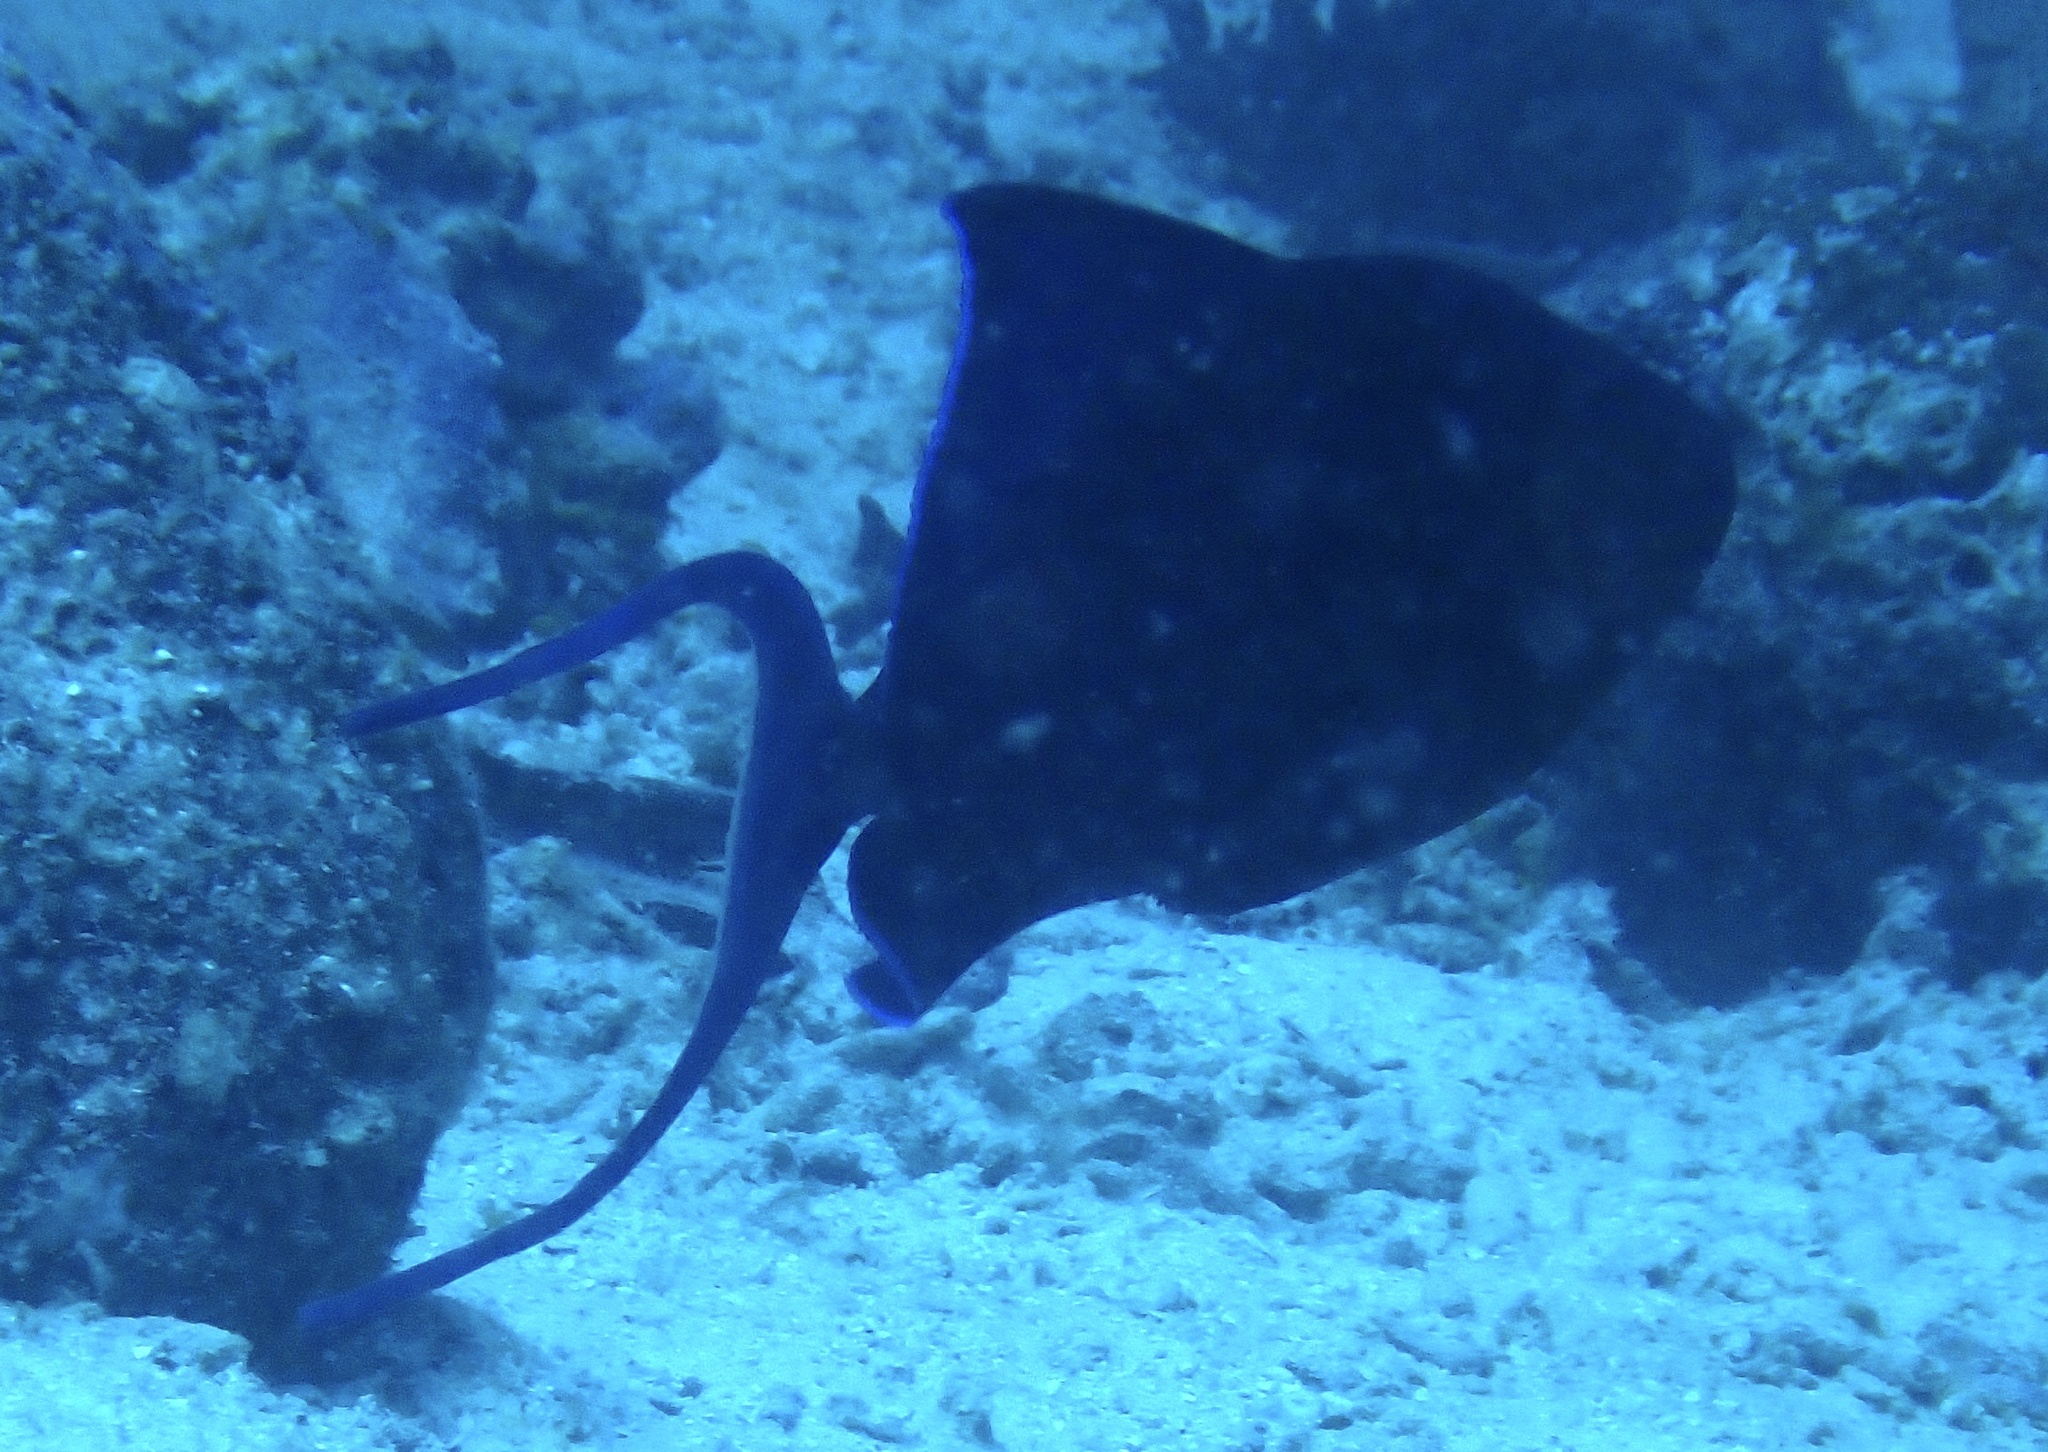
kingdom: Animalia
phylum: Chordata
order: Tetraodontiformes
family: Balistidae
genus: Odonus
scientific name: Odonus niger
